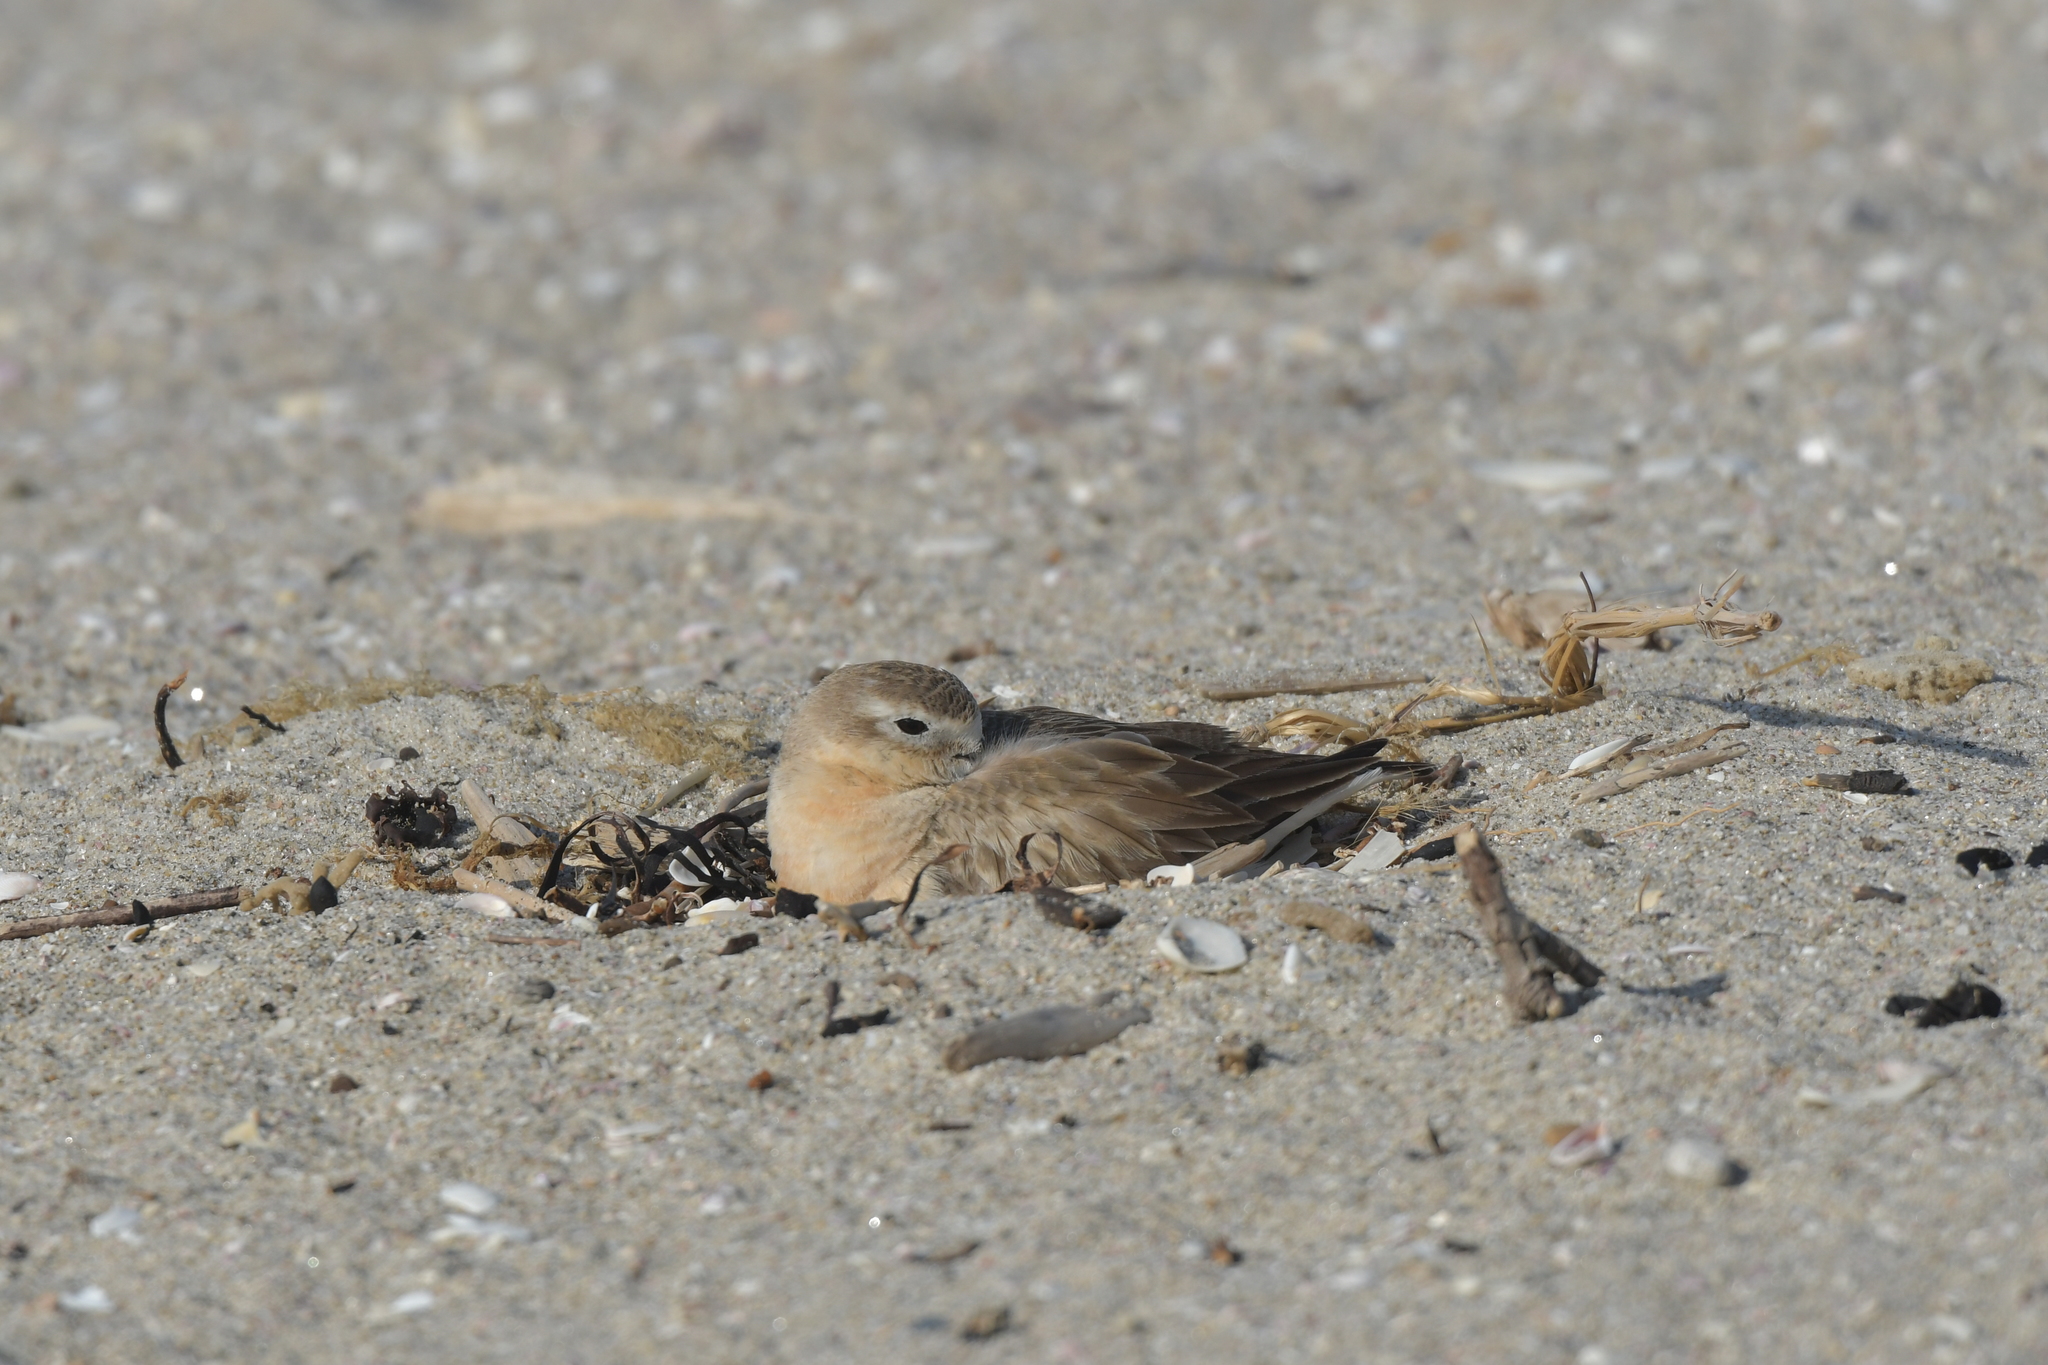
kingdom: Animalia
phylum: Chordata
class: Aves
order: Charadriiformes
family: Charadriidae
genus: Anarhynchus
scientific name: Anarhynchus
